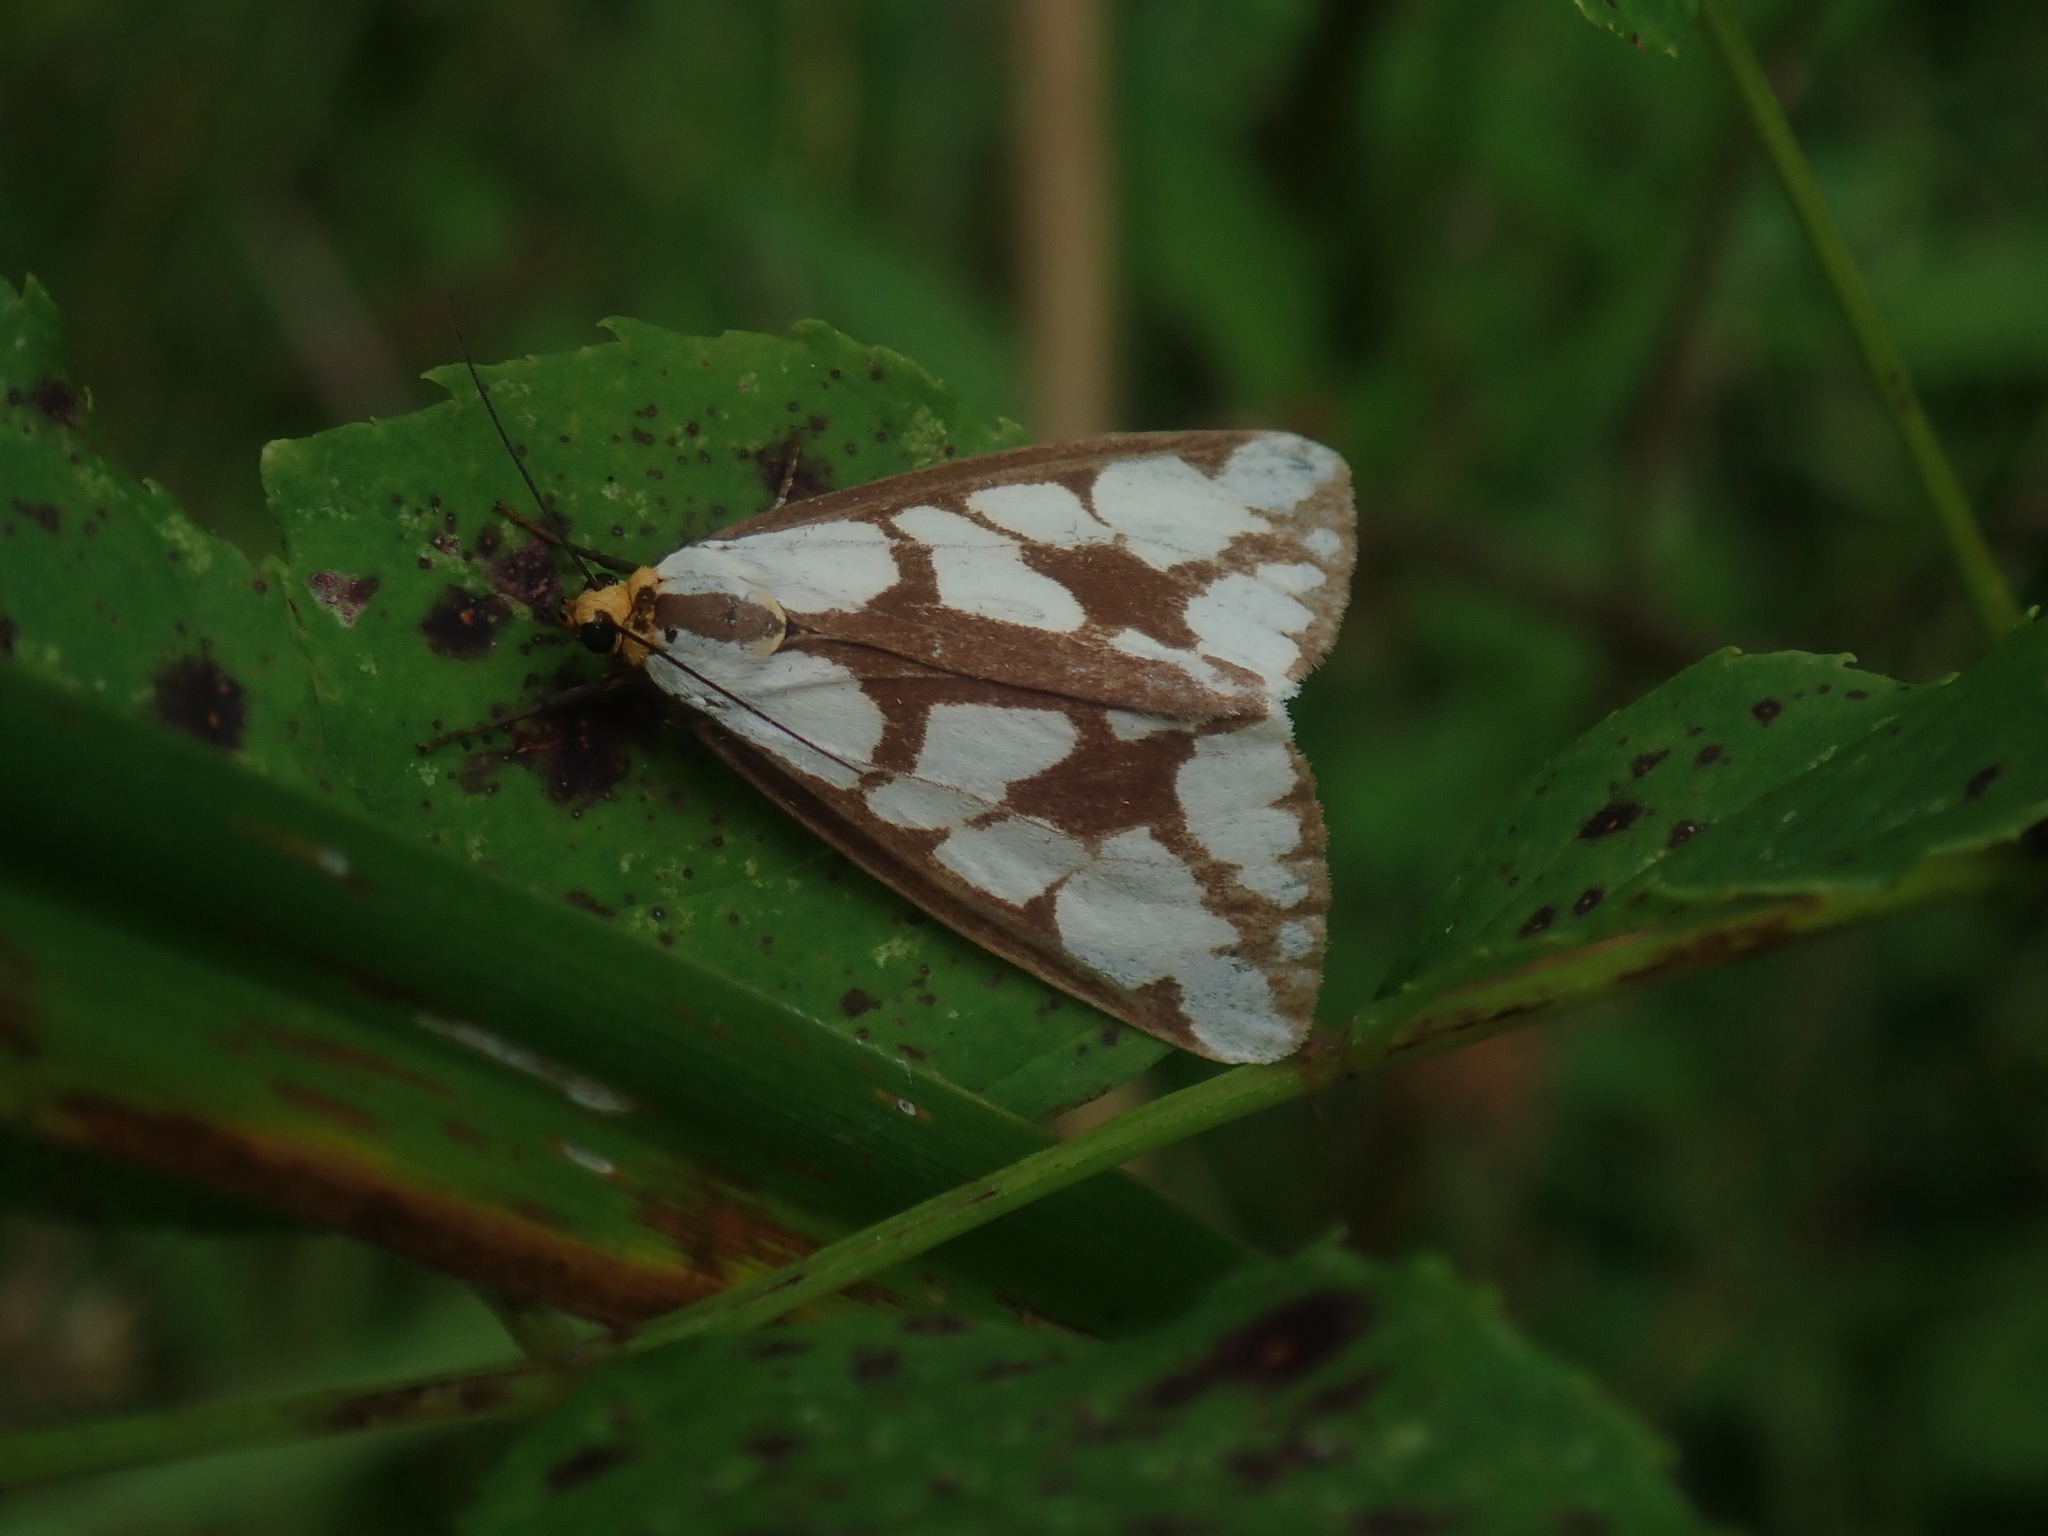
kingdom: Animalia
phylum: Arthropoda
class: Insecta
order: Lepidoptera
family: Erebidae
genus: Haploa
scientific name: Haploa confusa
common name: Confused haploa moth
